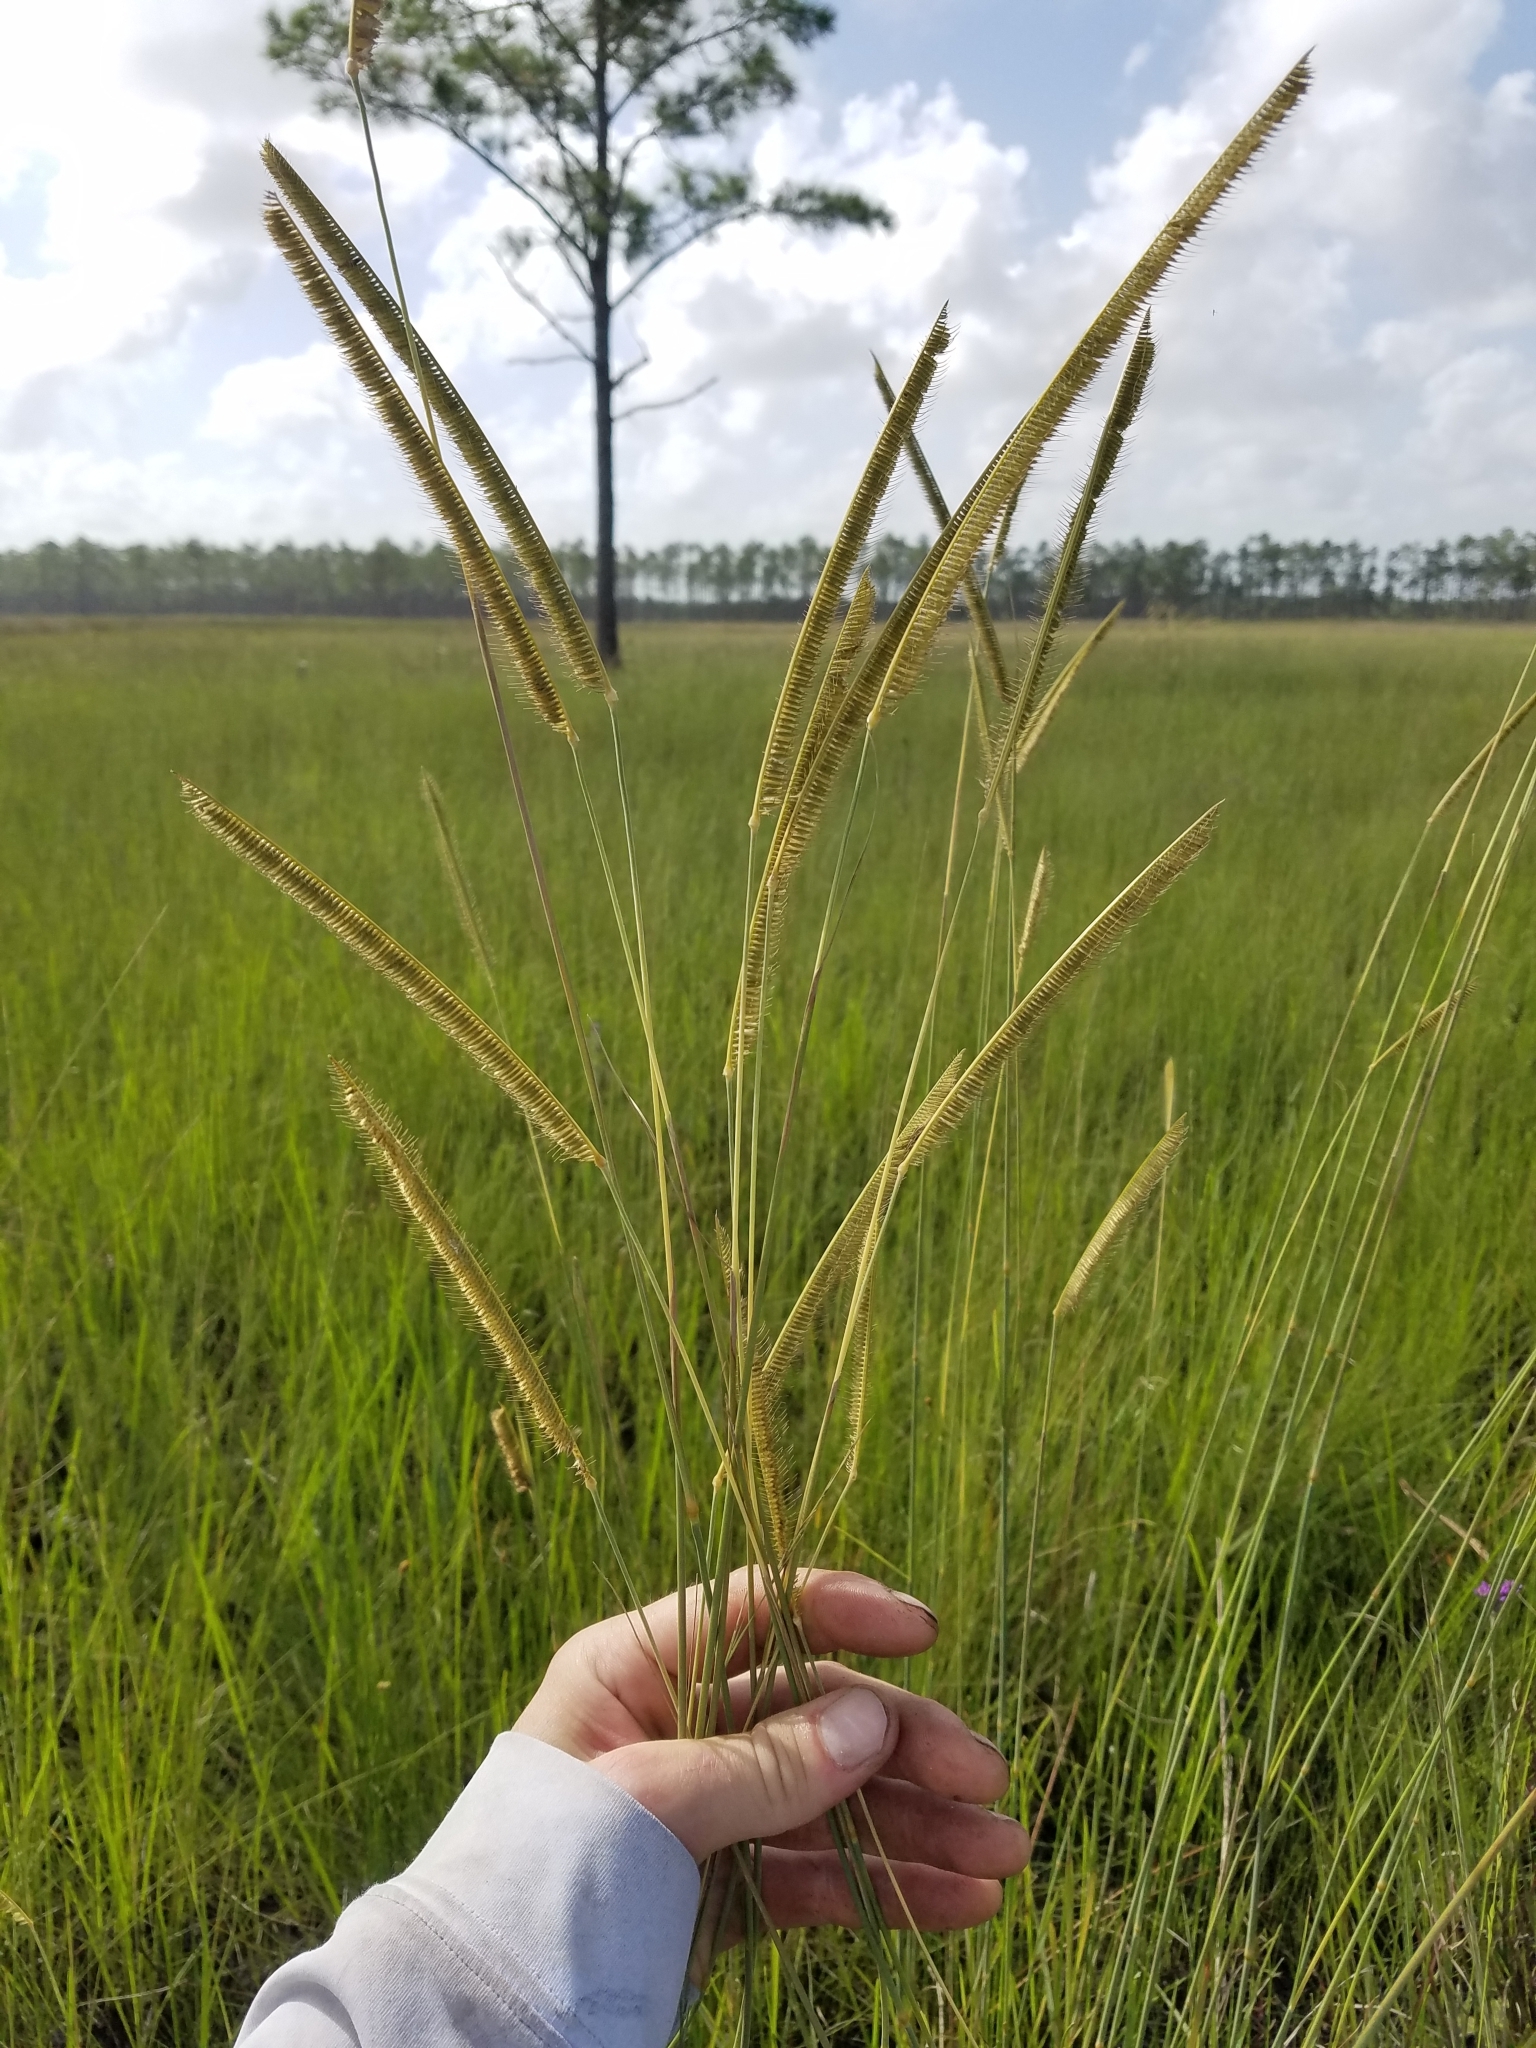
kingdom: Plantae
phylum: Tracheophyta
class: Liliopsida
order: Poales
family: Poaceae
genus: Ctenium
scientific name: Ctenium aromaticum
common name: Toothache grass
